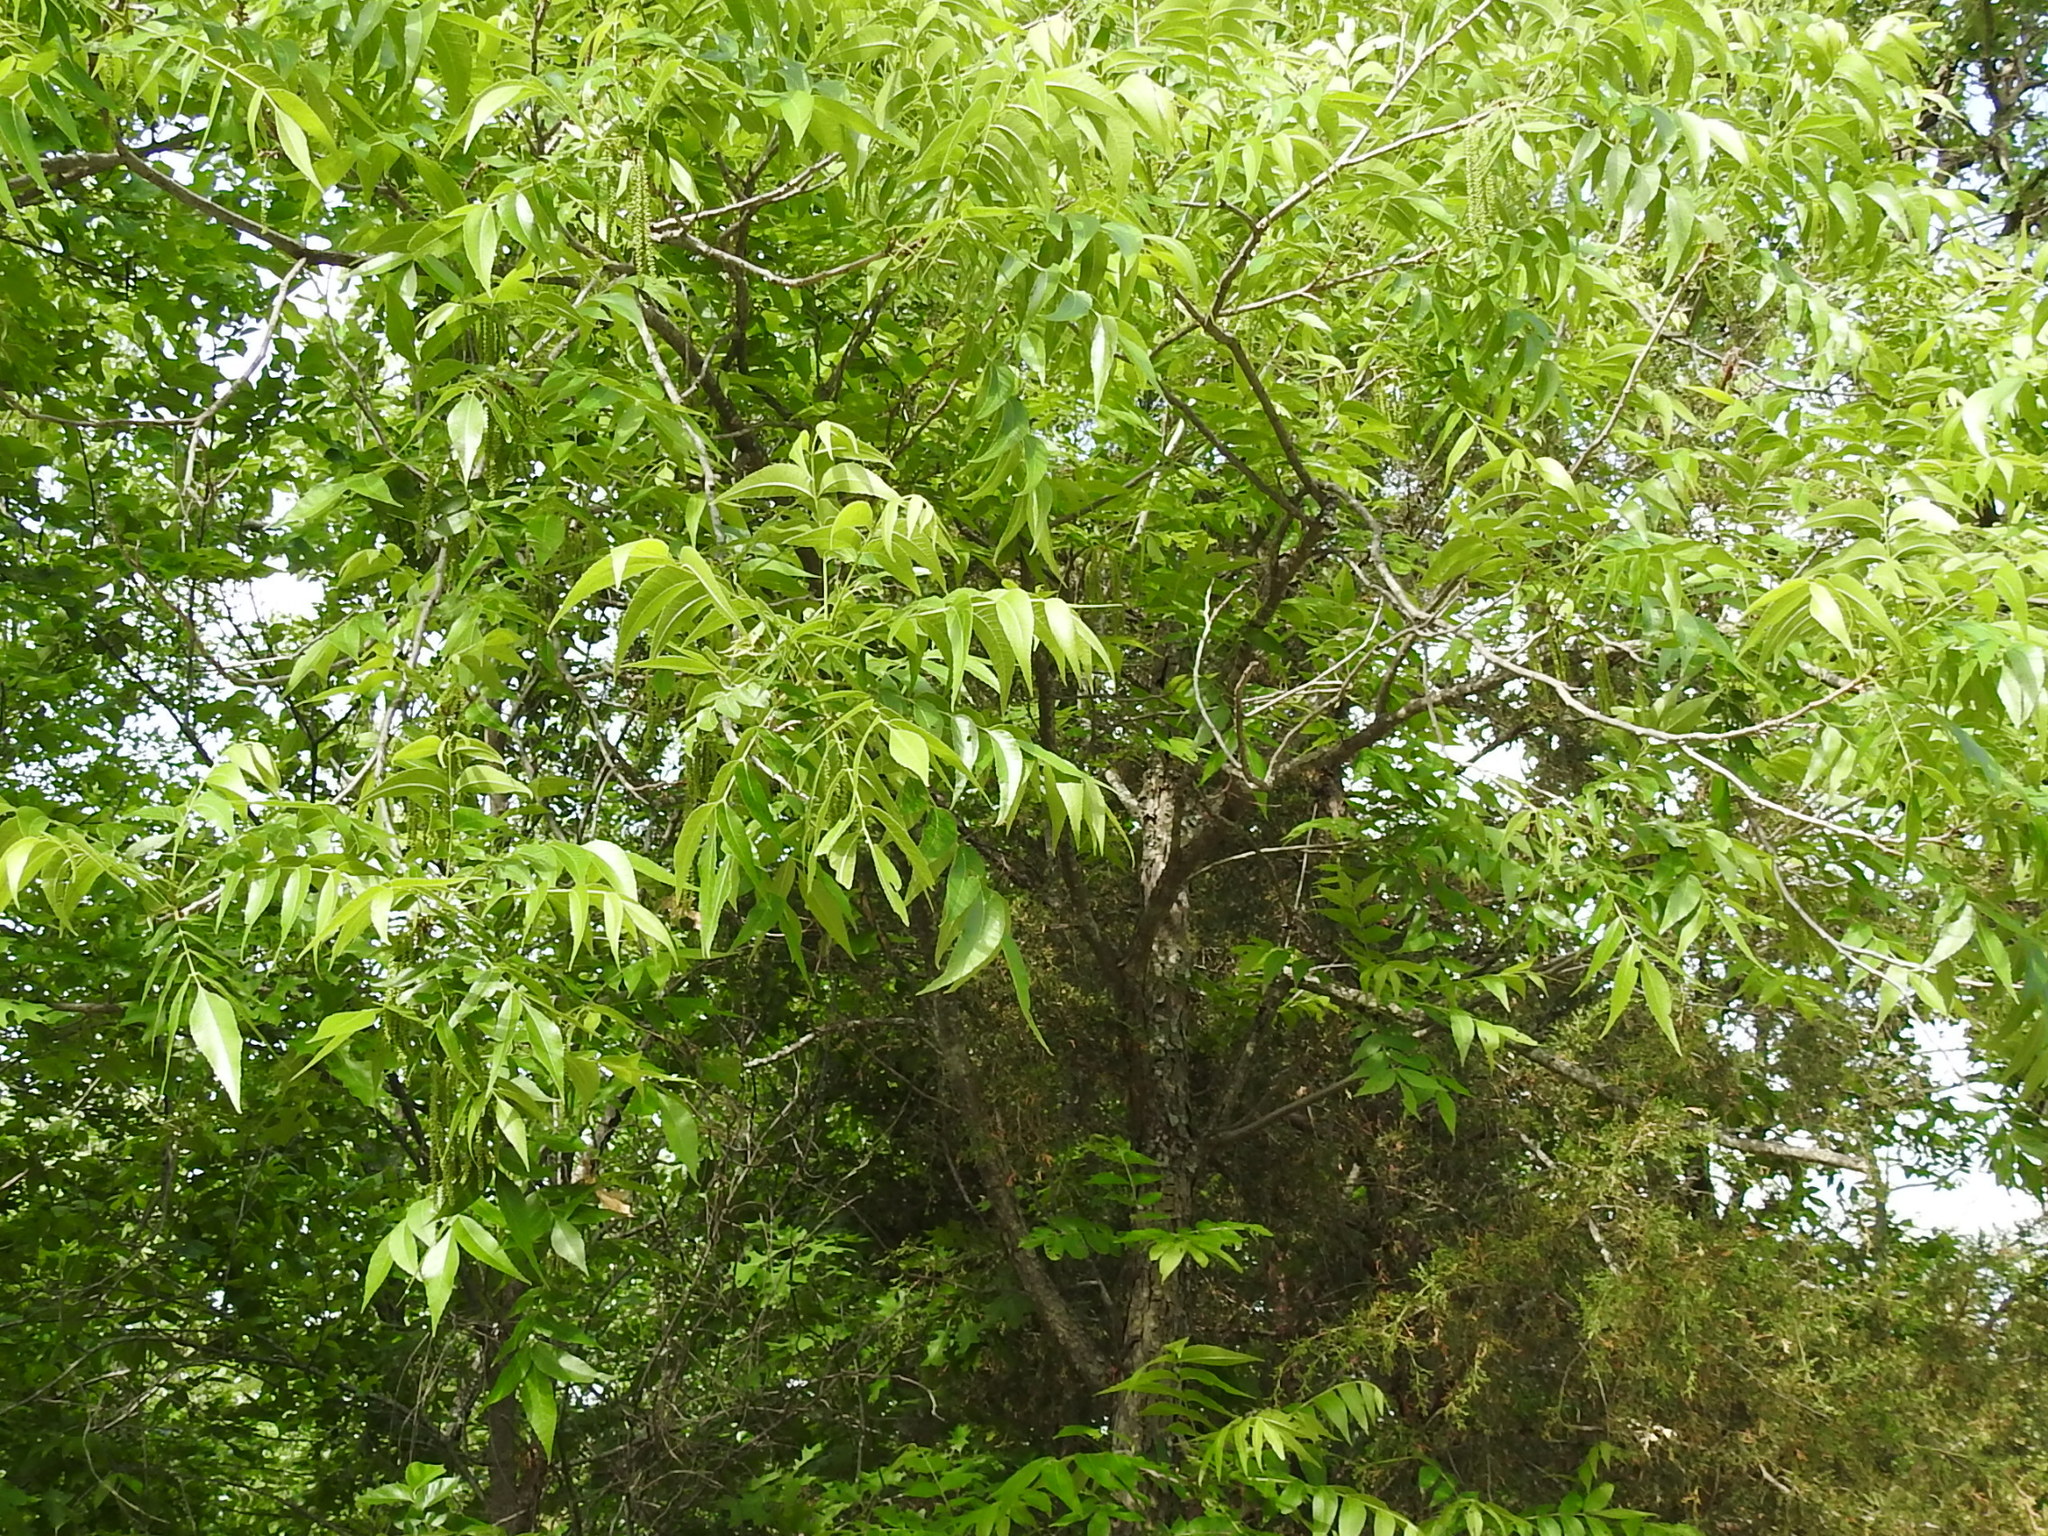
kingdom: Plantae
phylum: Tracheophyta
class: Magnoliopsida
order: Fagales
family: Juglandaceae
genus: Carya
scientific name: Carya illinoinensis
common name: Pecan
